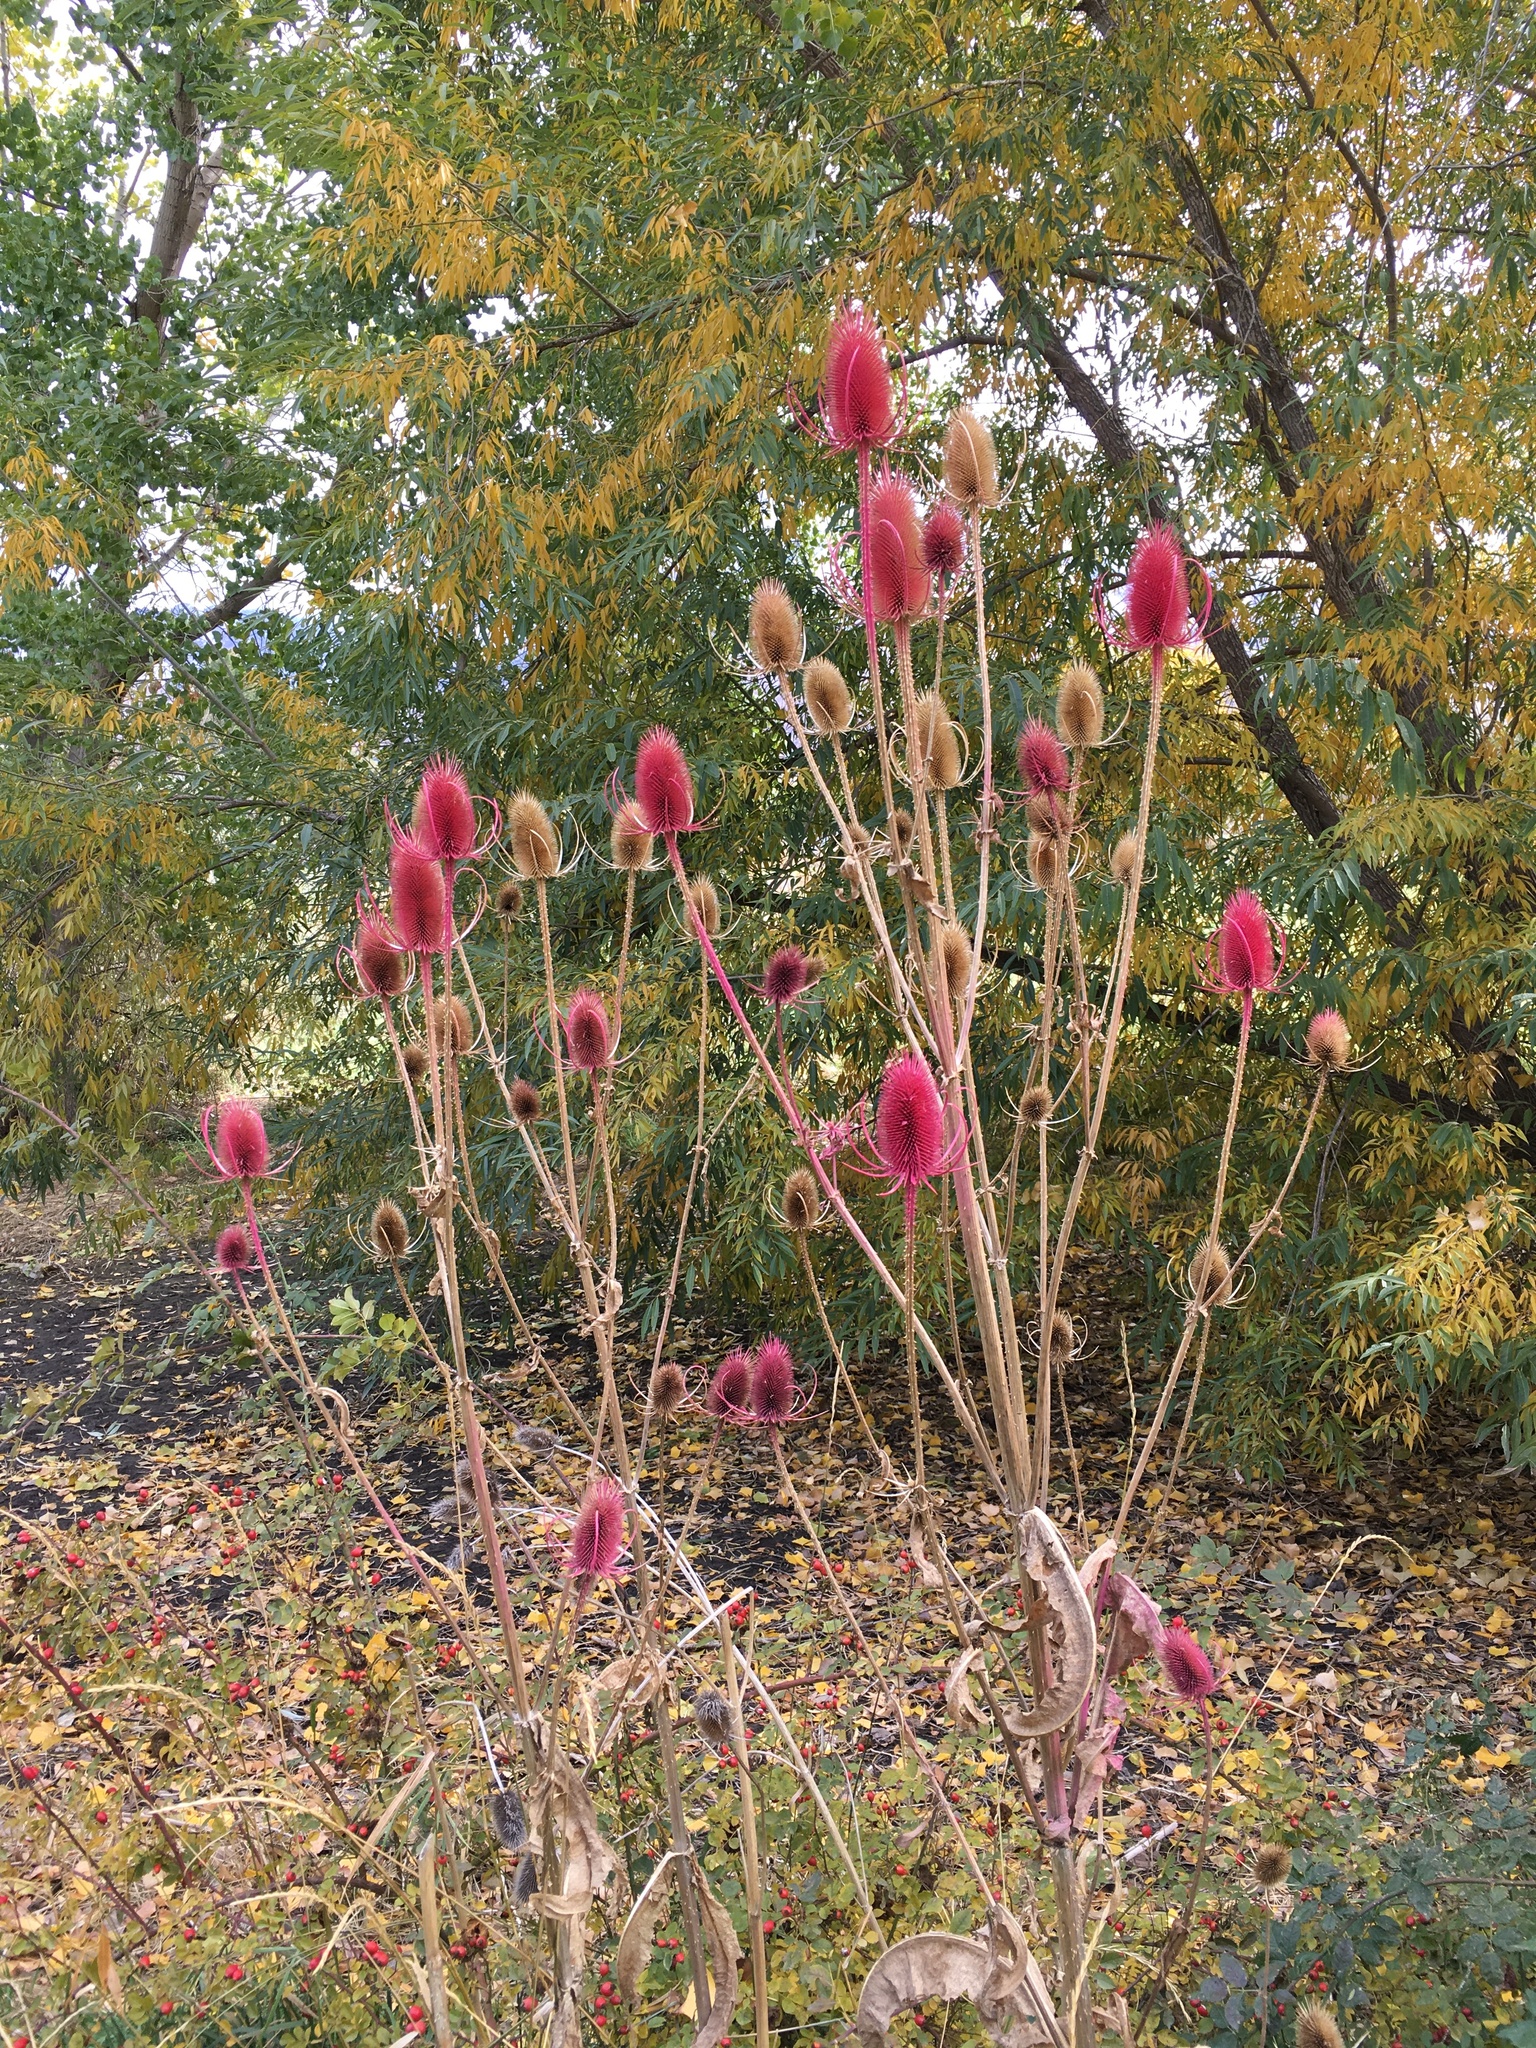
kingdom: Plantae
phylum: Tracheophyta
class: Magnoliopsida
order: Dipsacales
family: Caprifoliaceae
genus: Dipsacus
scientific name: Dipsacus fullonum
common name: Teasel
